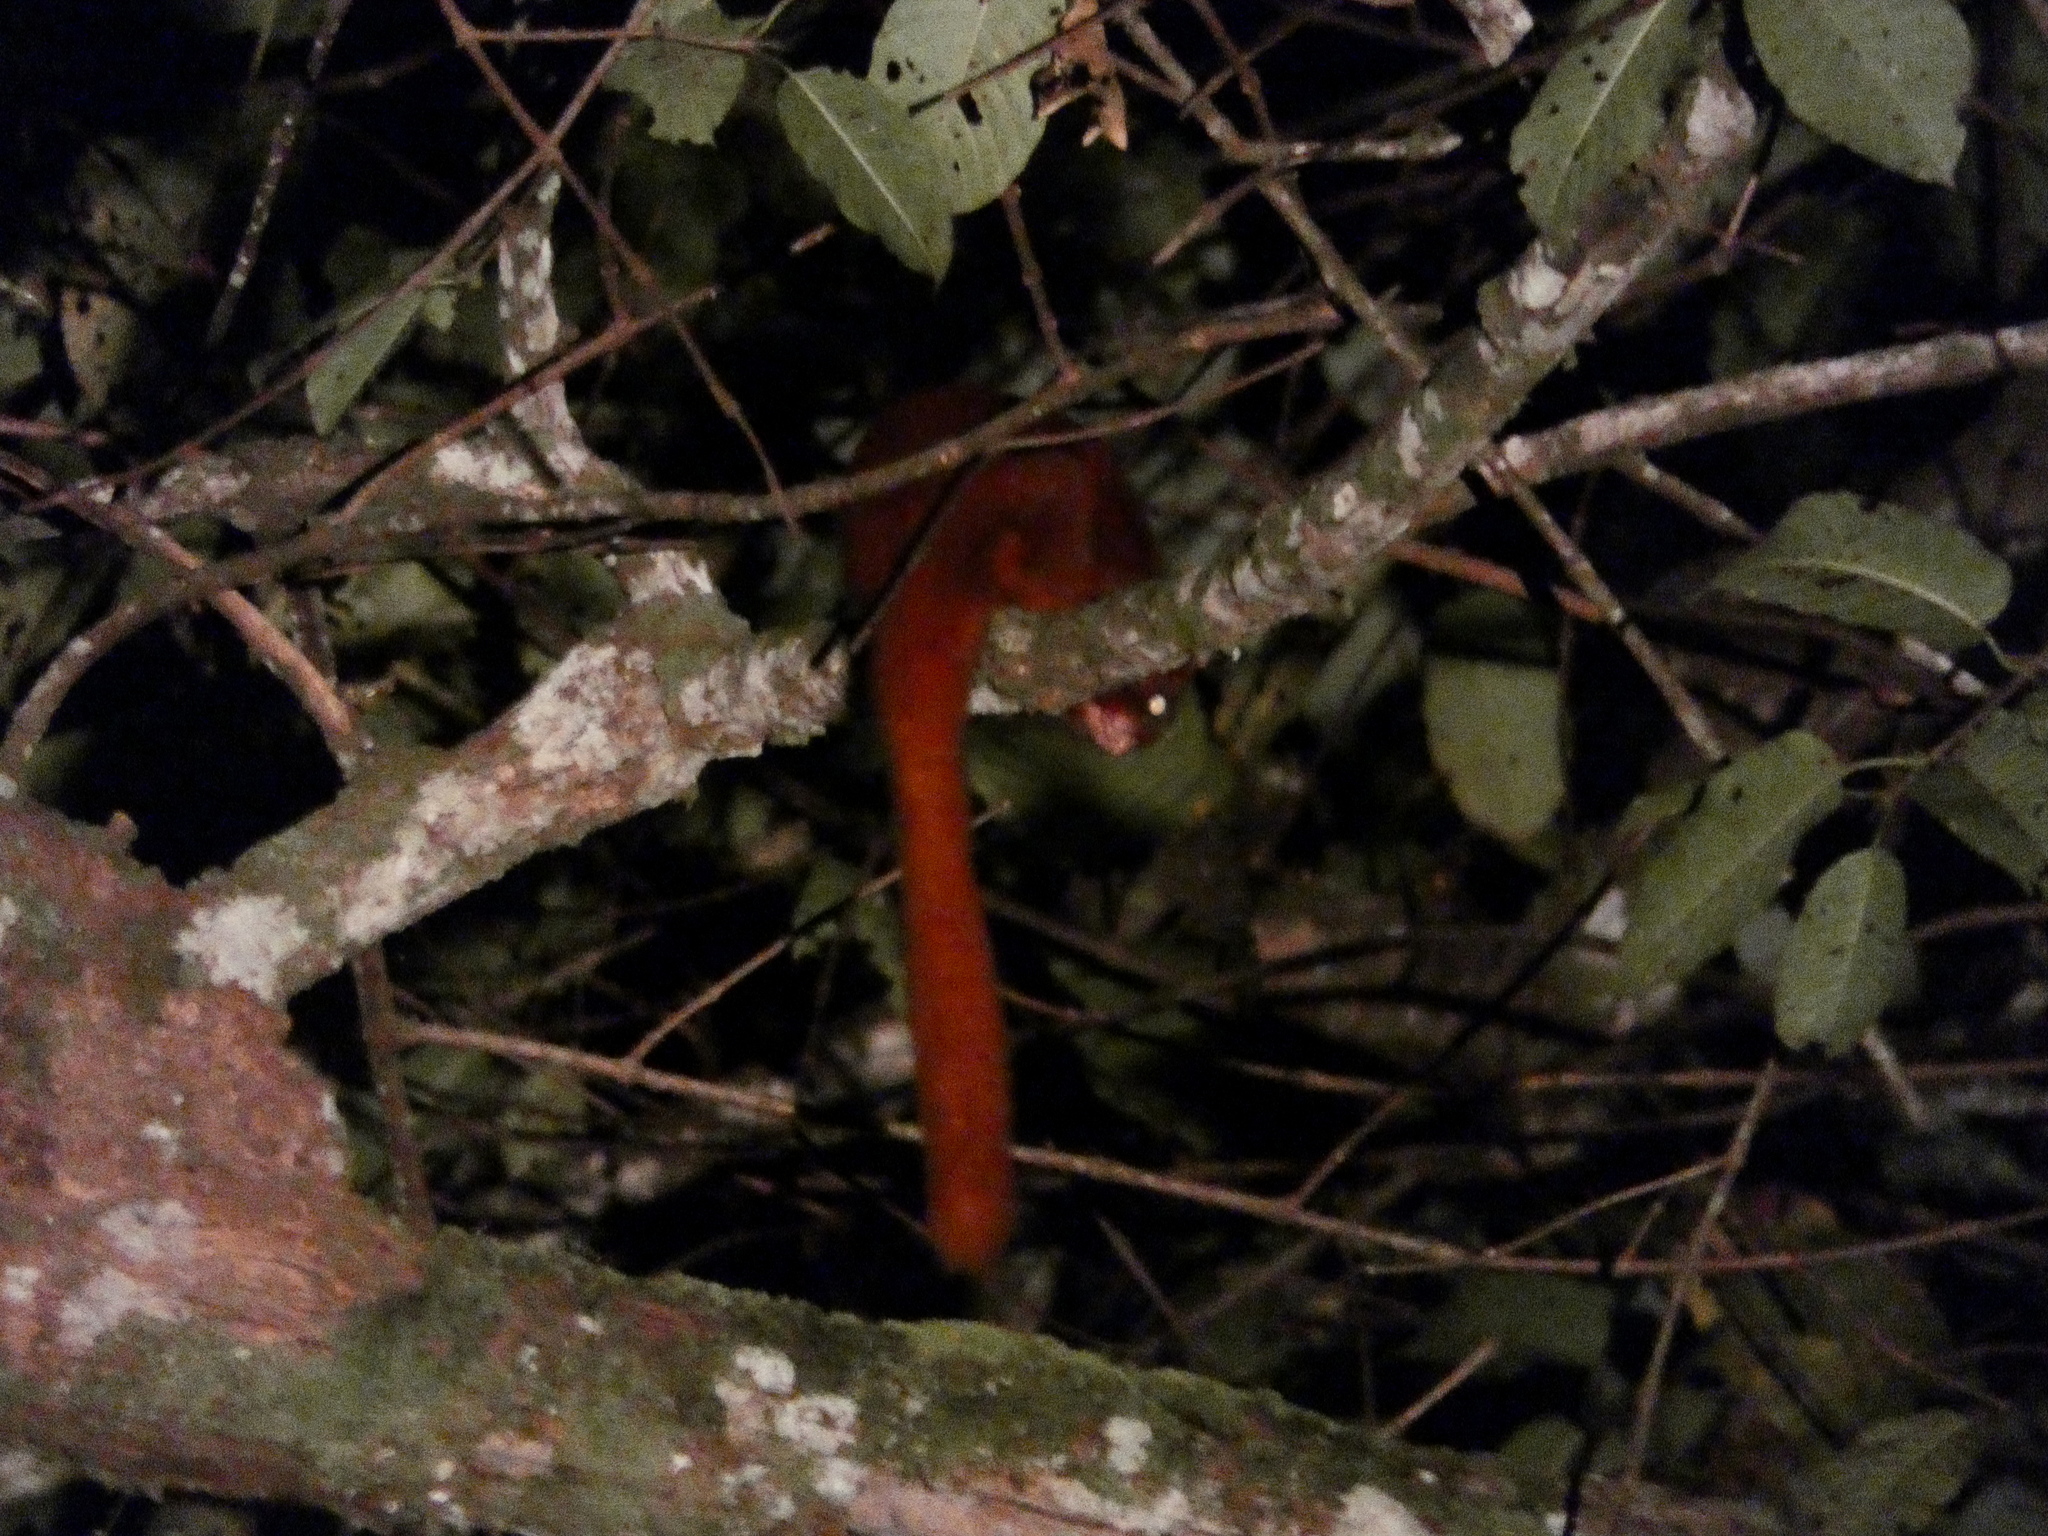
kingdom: Animalia
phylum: Chordata
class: Mammalia
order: Rodentia
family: Sciuridae
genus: Aeromys
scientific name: Aeromys thomasi
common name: Thomas's flying squirrel
